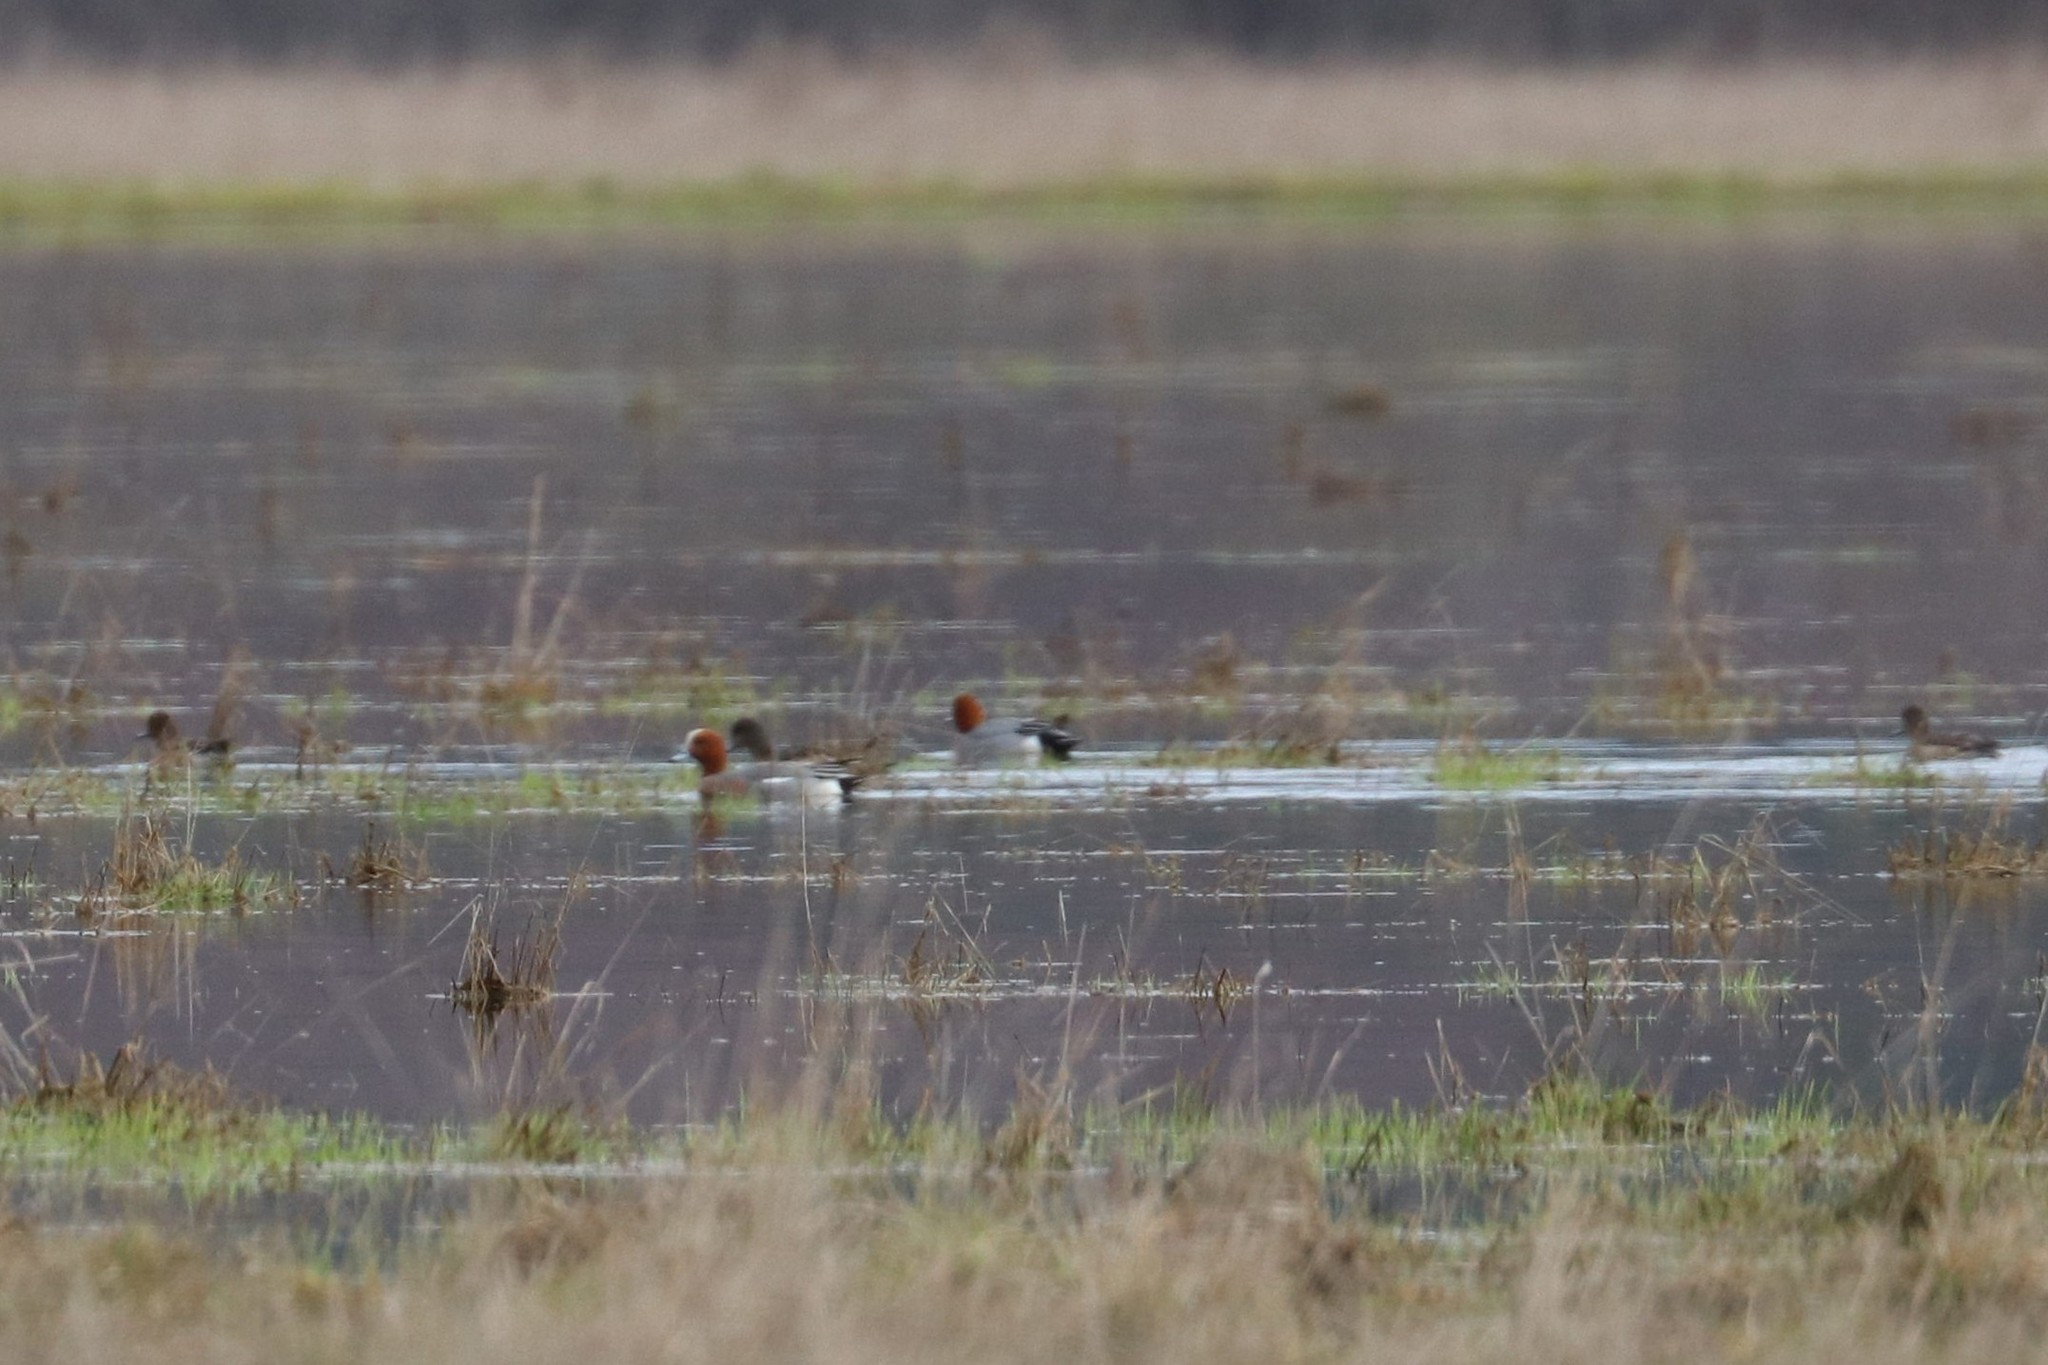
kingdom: Animalia
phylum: Chordata
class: Aves
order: Anseriformes
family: Anatidae
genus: Mareca
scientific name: Mareca penelope
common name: Eurasian wigeon
